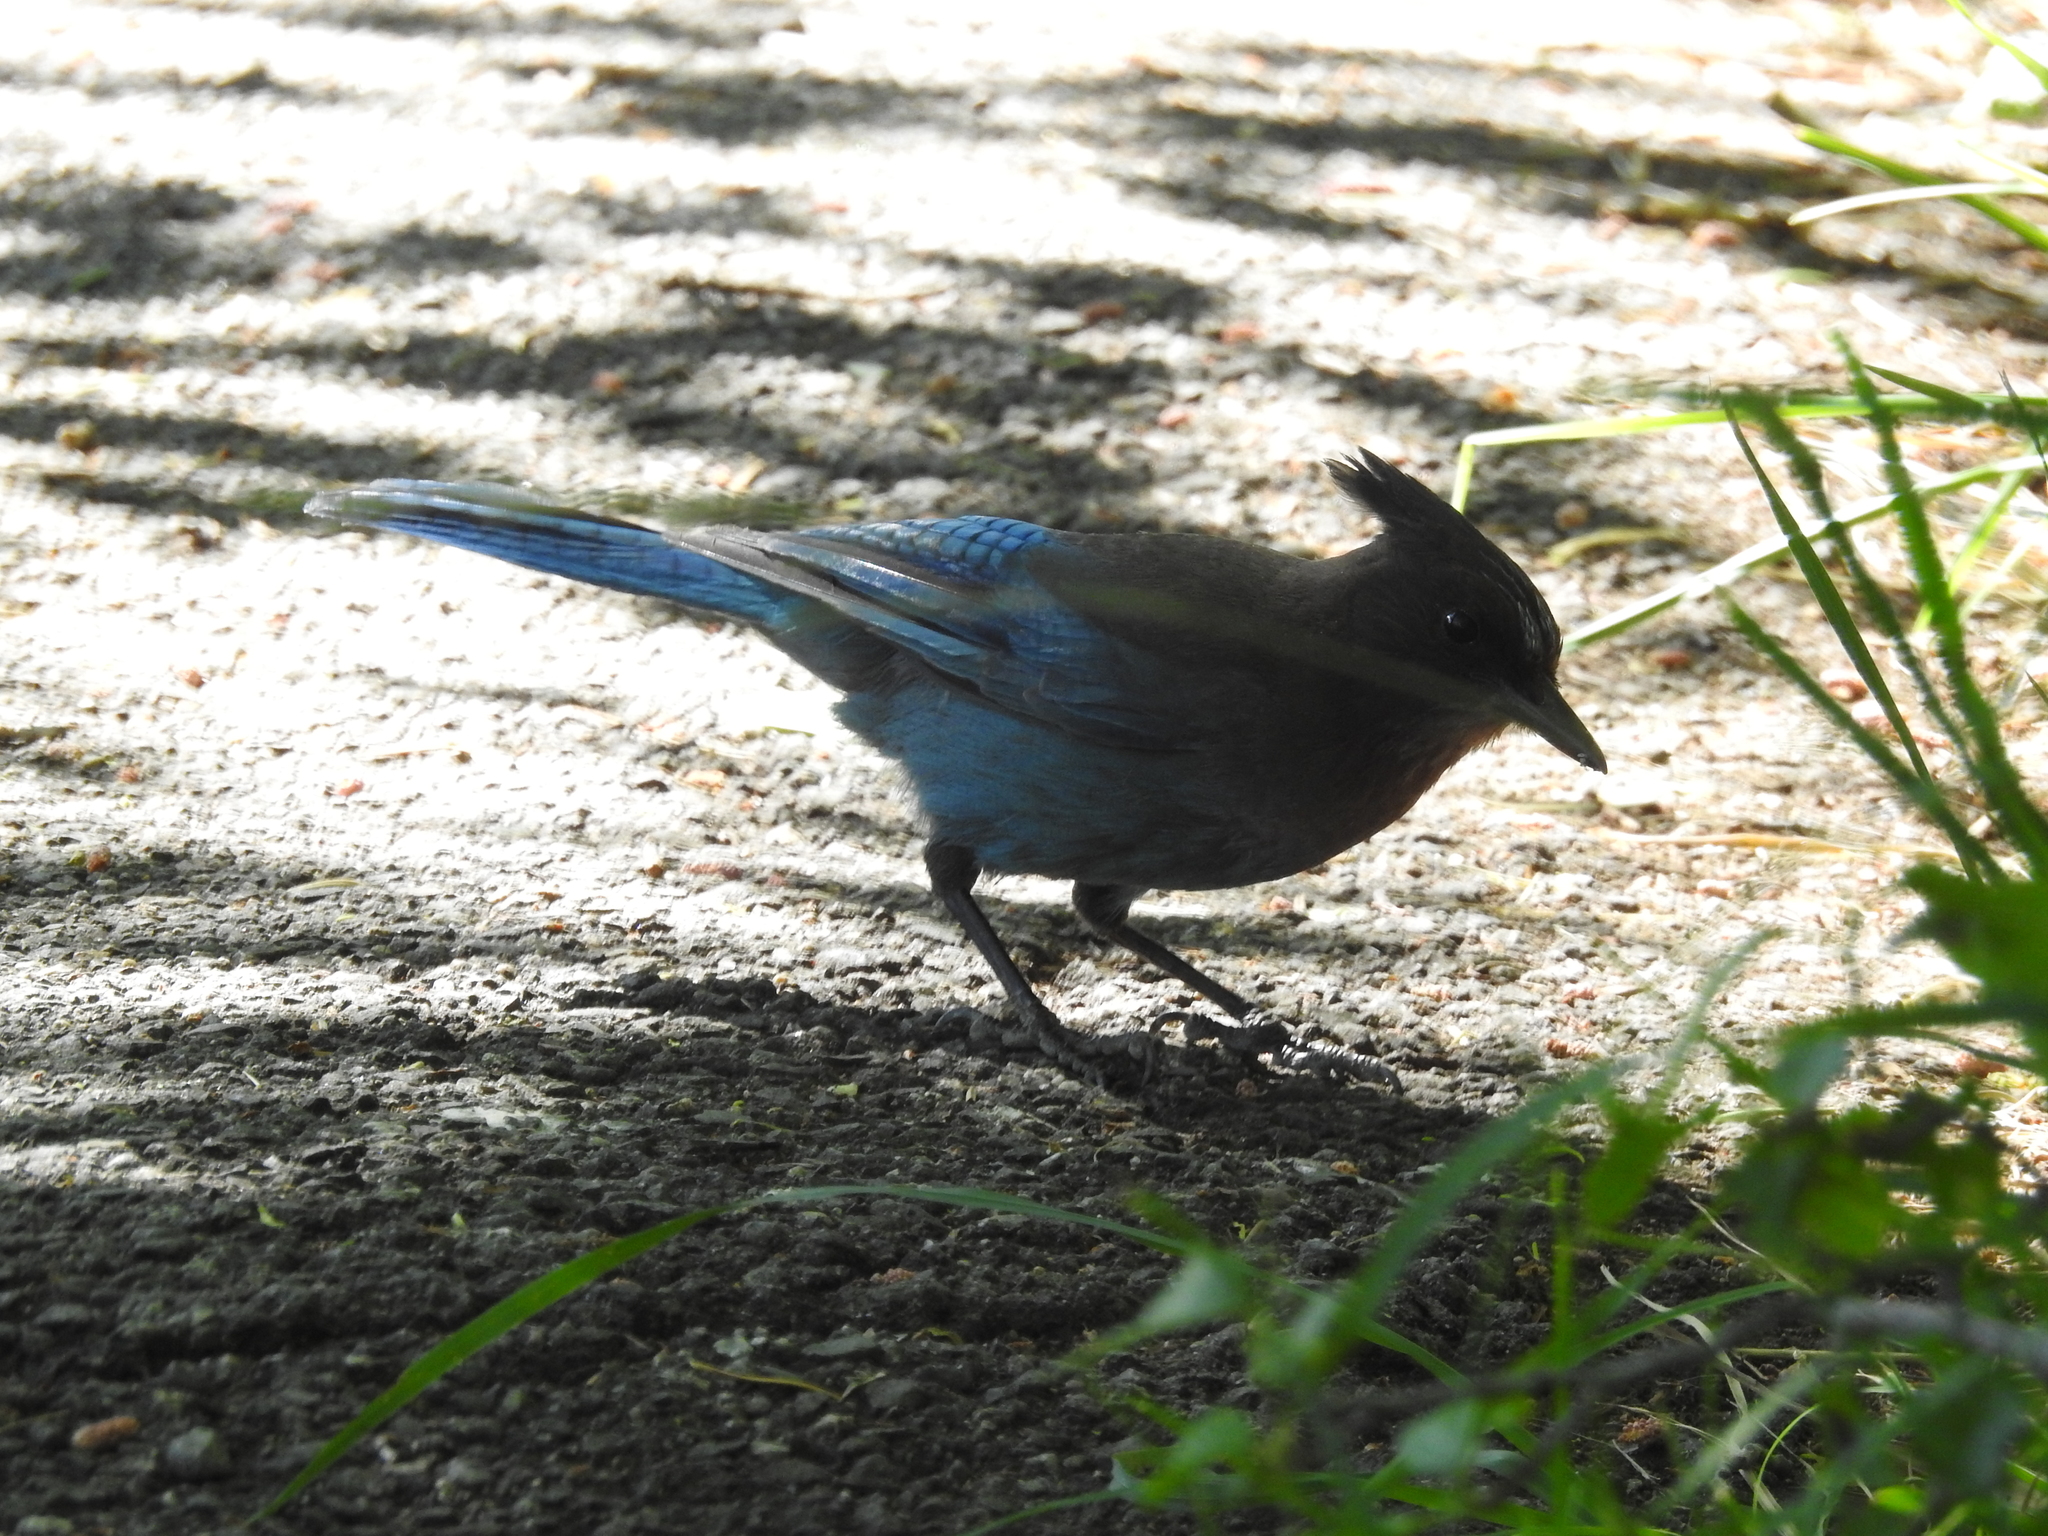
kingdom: Animalia
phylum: Chordata
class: Aves
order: Passeriformes
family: Corvidae
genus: Cyanocitta
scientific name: Cyanocitta stelleri
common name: Steller's jay
